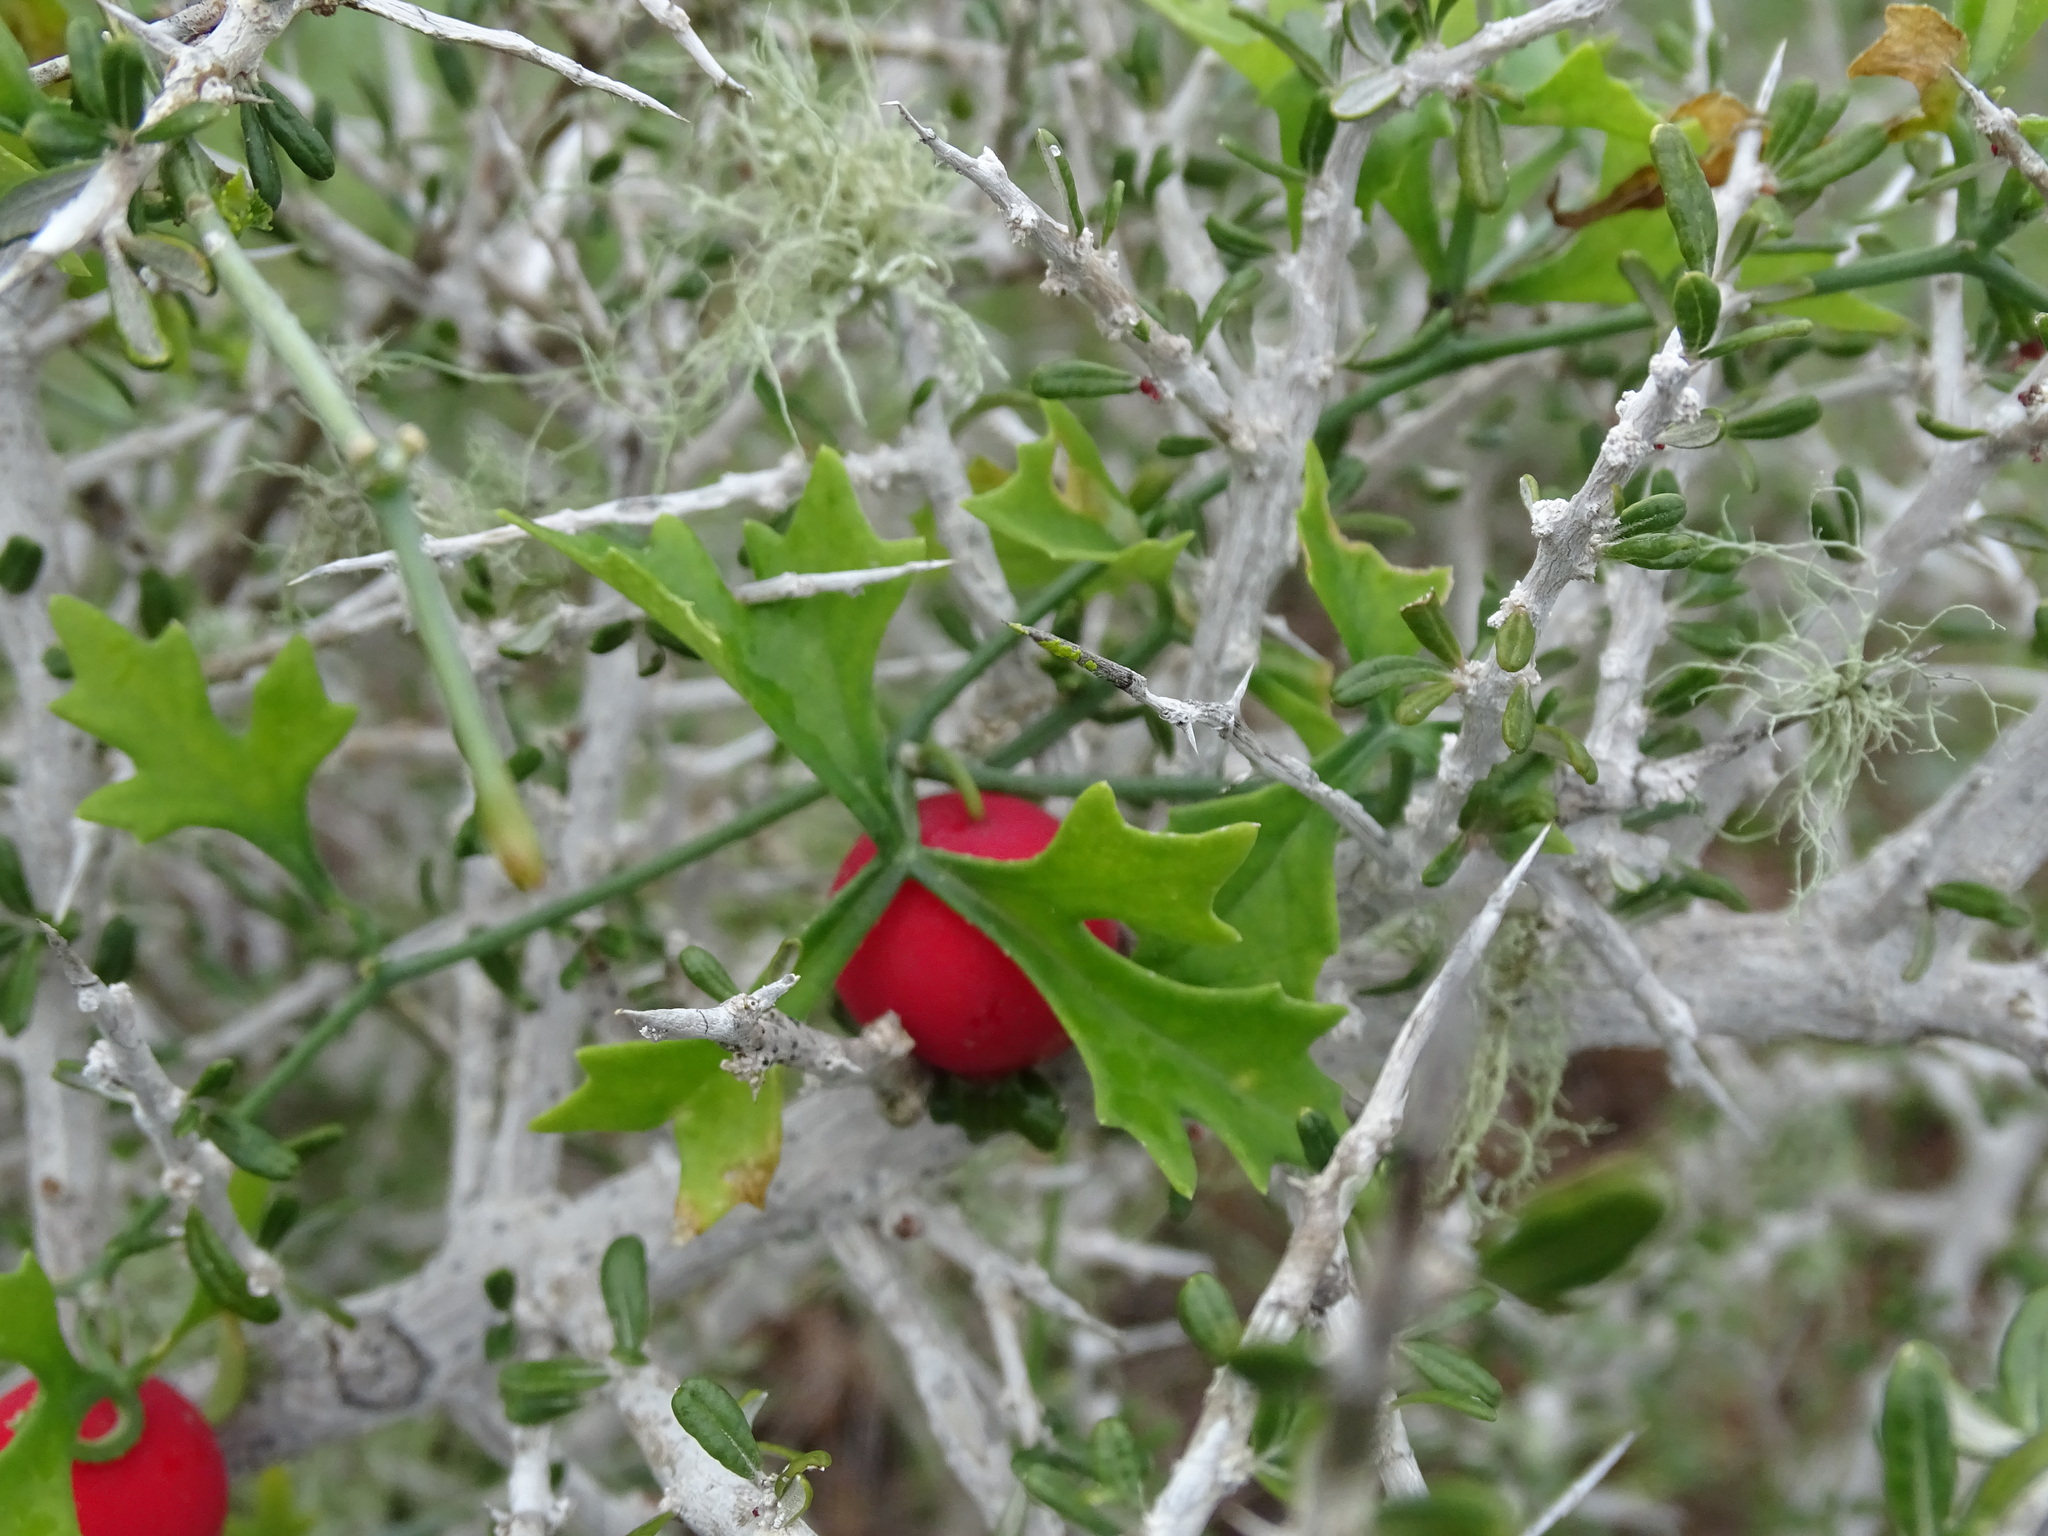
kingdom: Plantae
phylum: Tracheophyta
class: Magnoliopsida
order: Cucurbitales
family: Cucurbitaceae
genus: Ibervillea
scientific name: Ibervillea tenuisecta
